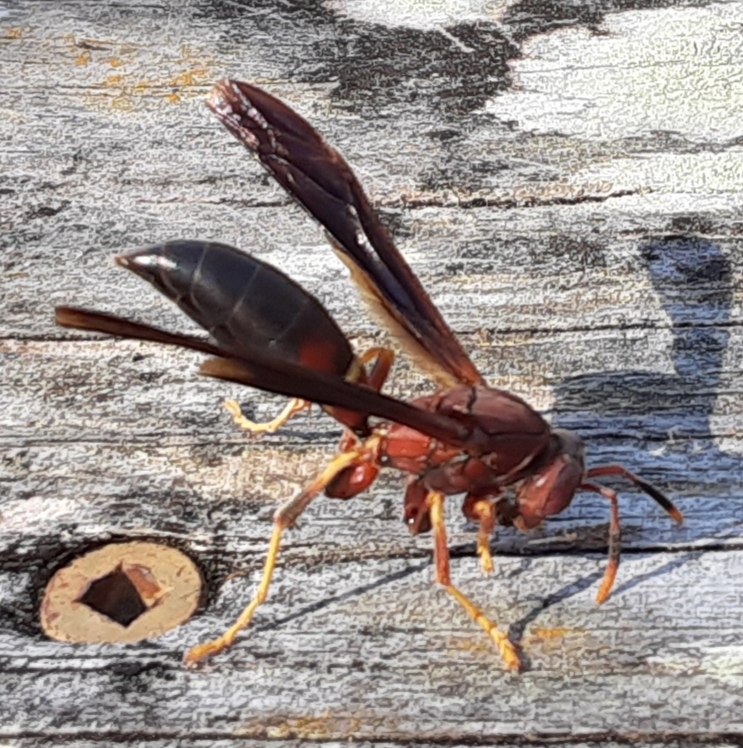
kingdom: Animalia
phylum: Arthropoda
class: Insecta
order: Hymenoptera
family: Eumenidae
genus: Polistes
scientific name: Polistes annularis
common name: Ringed paper wasp
